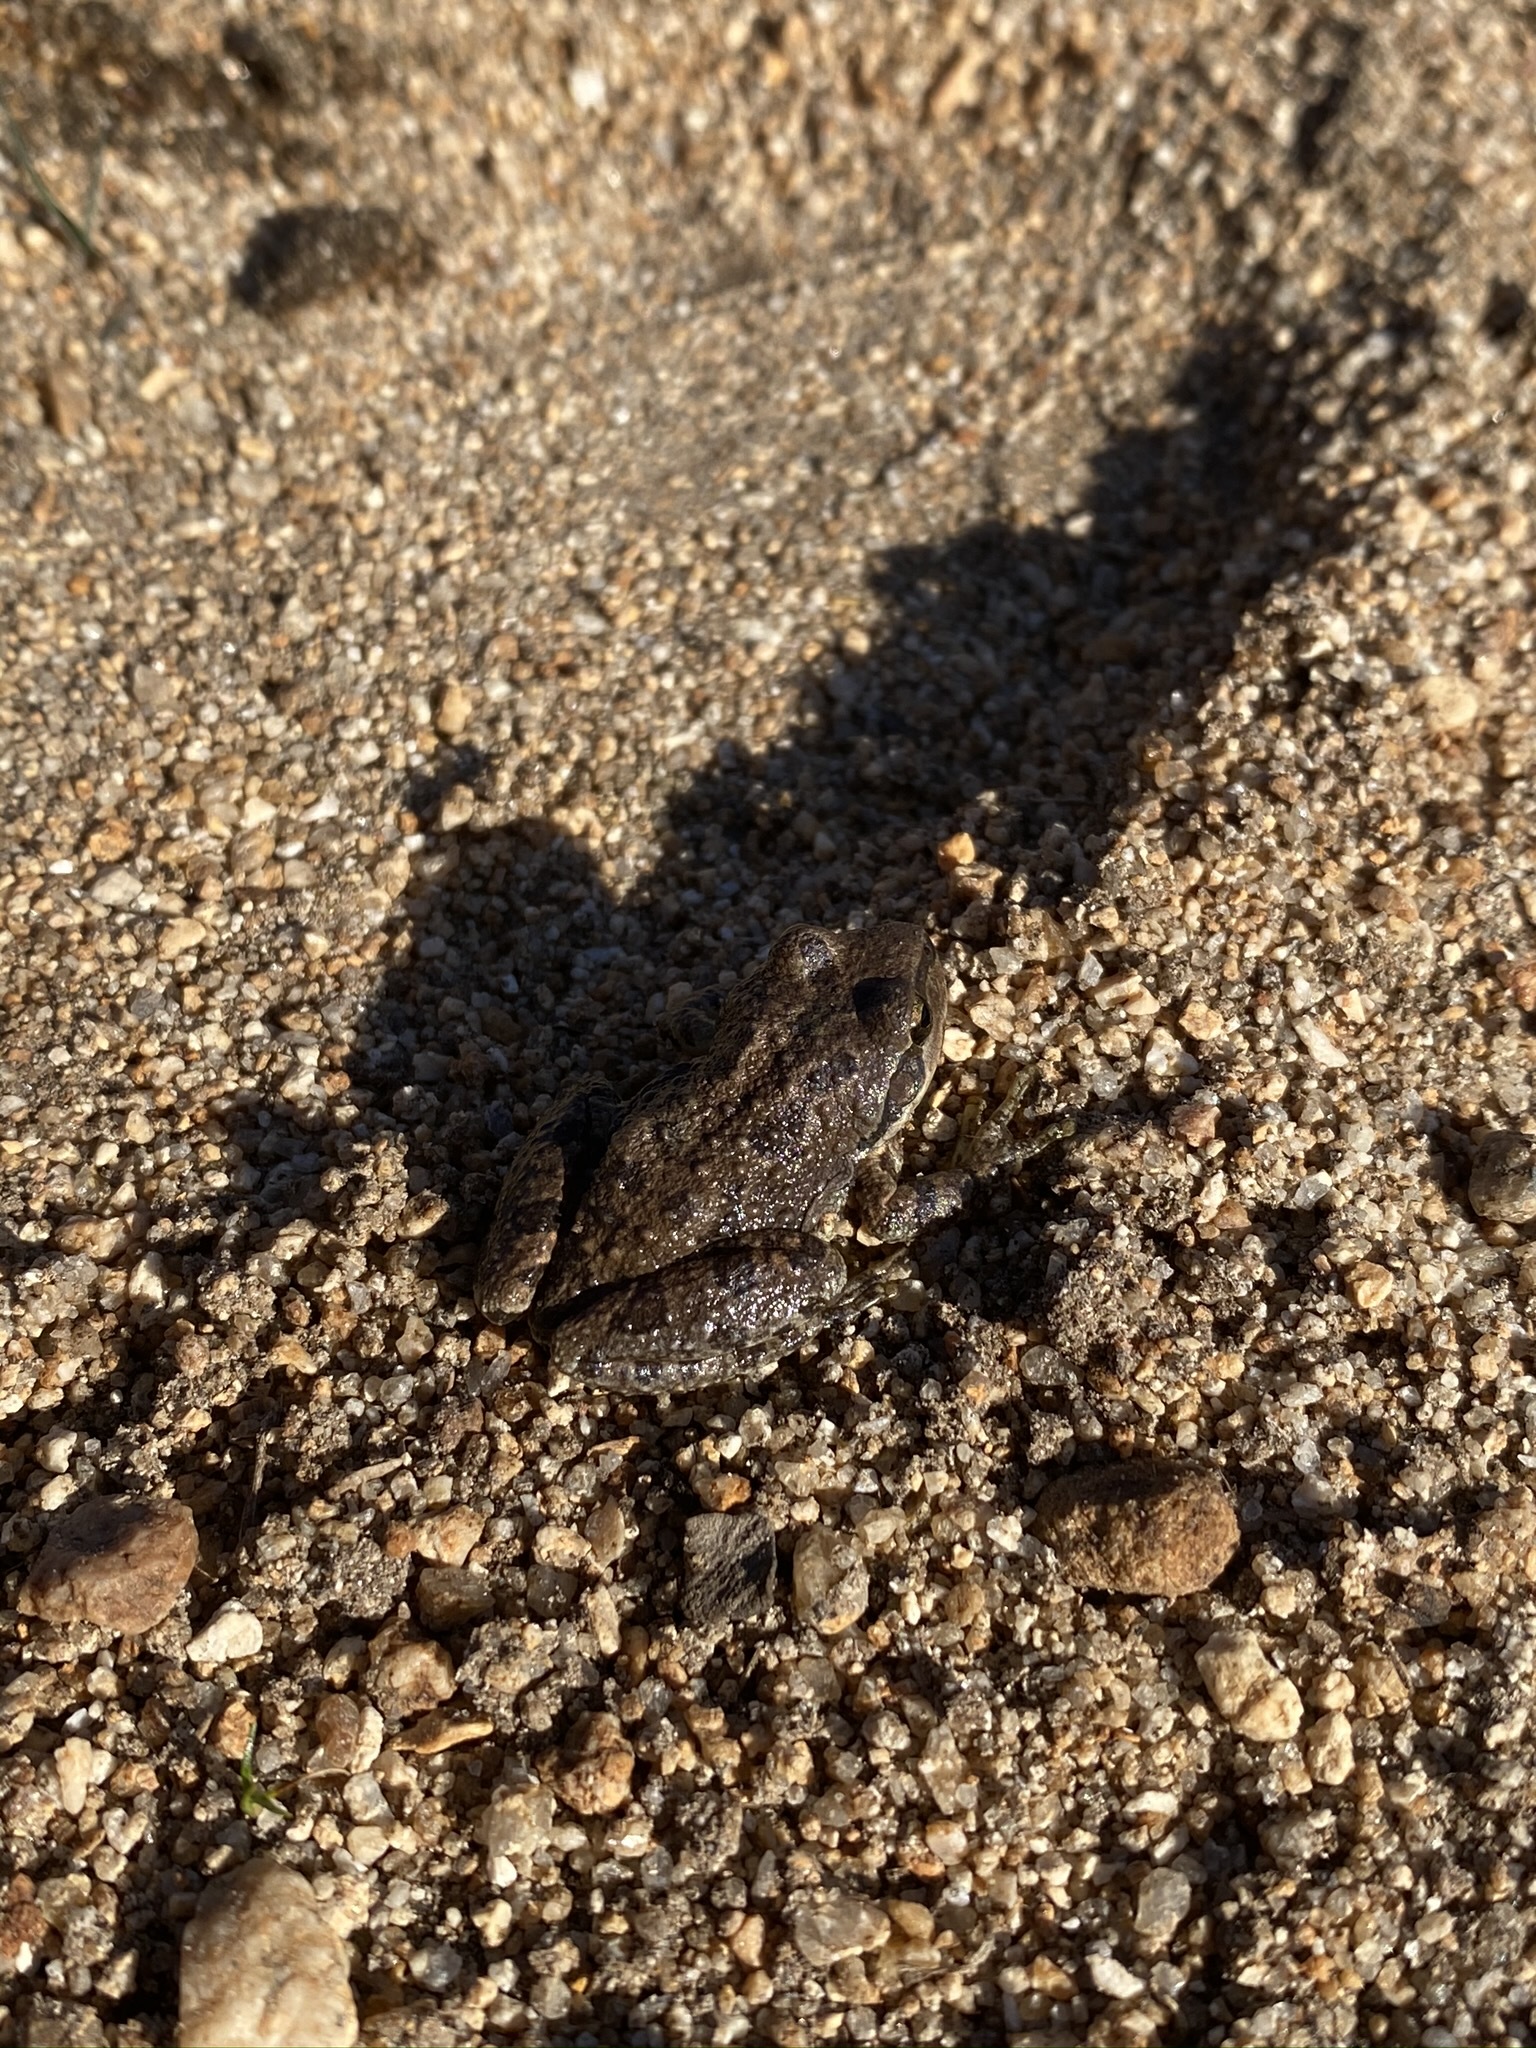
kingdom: Animalia
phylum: Chordata
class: Amphibia
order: Anura
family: Hylidae
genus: Pseudacris
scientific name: Pseudacris regilla
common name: Pacific chorus frog
